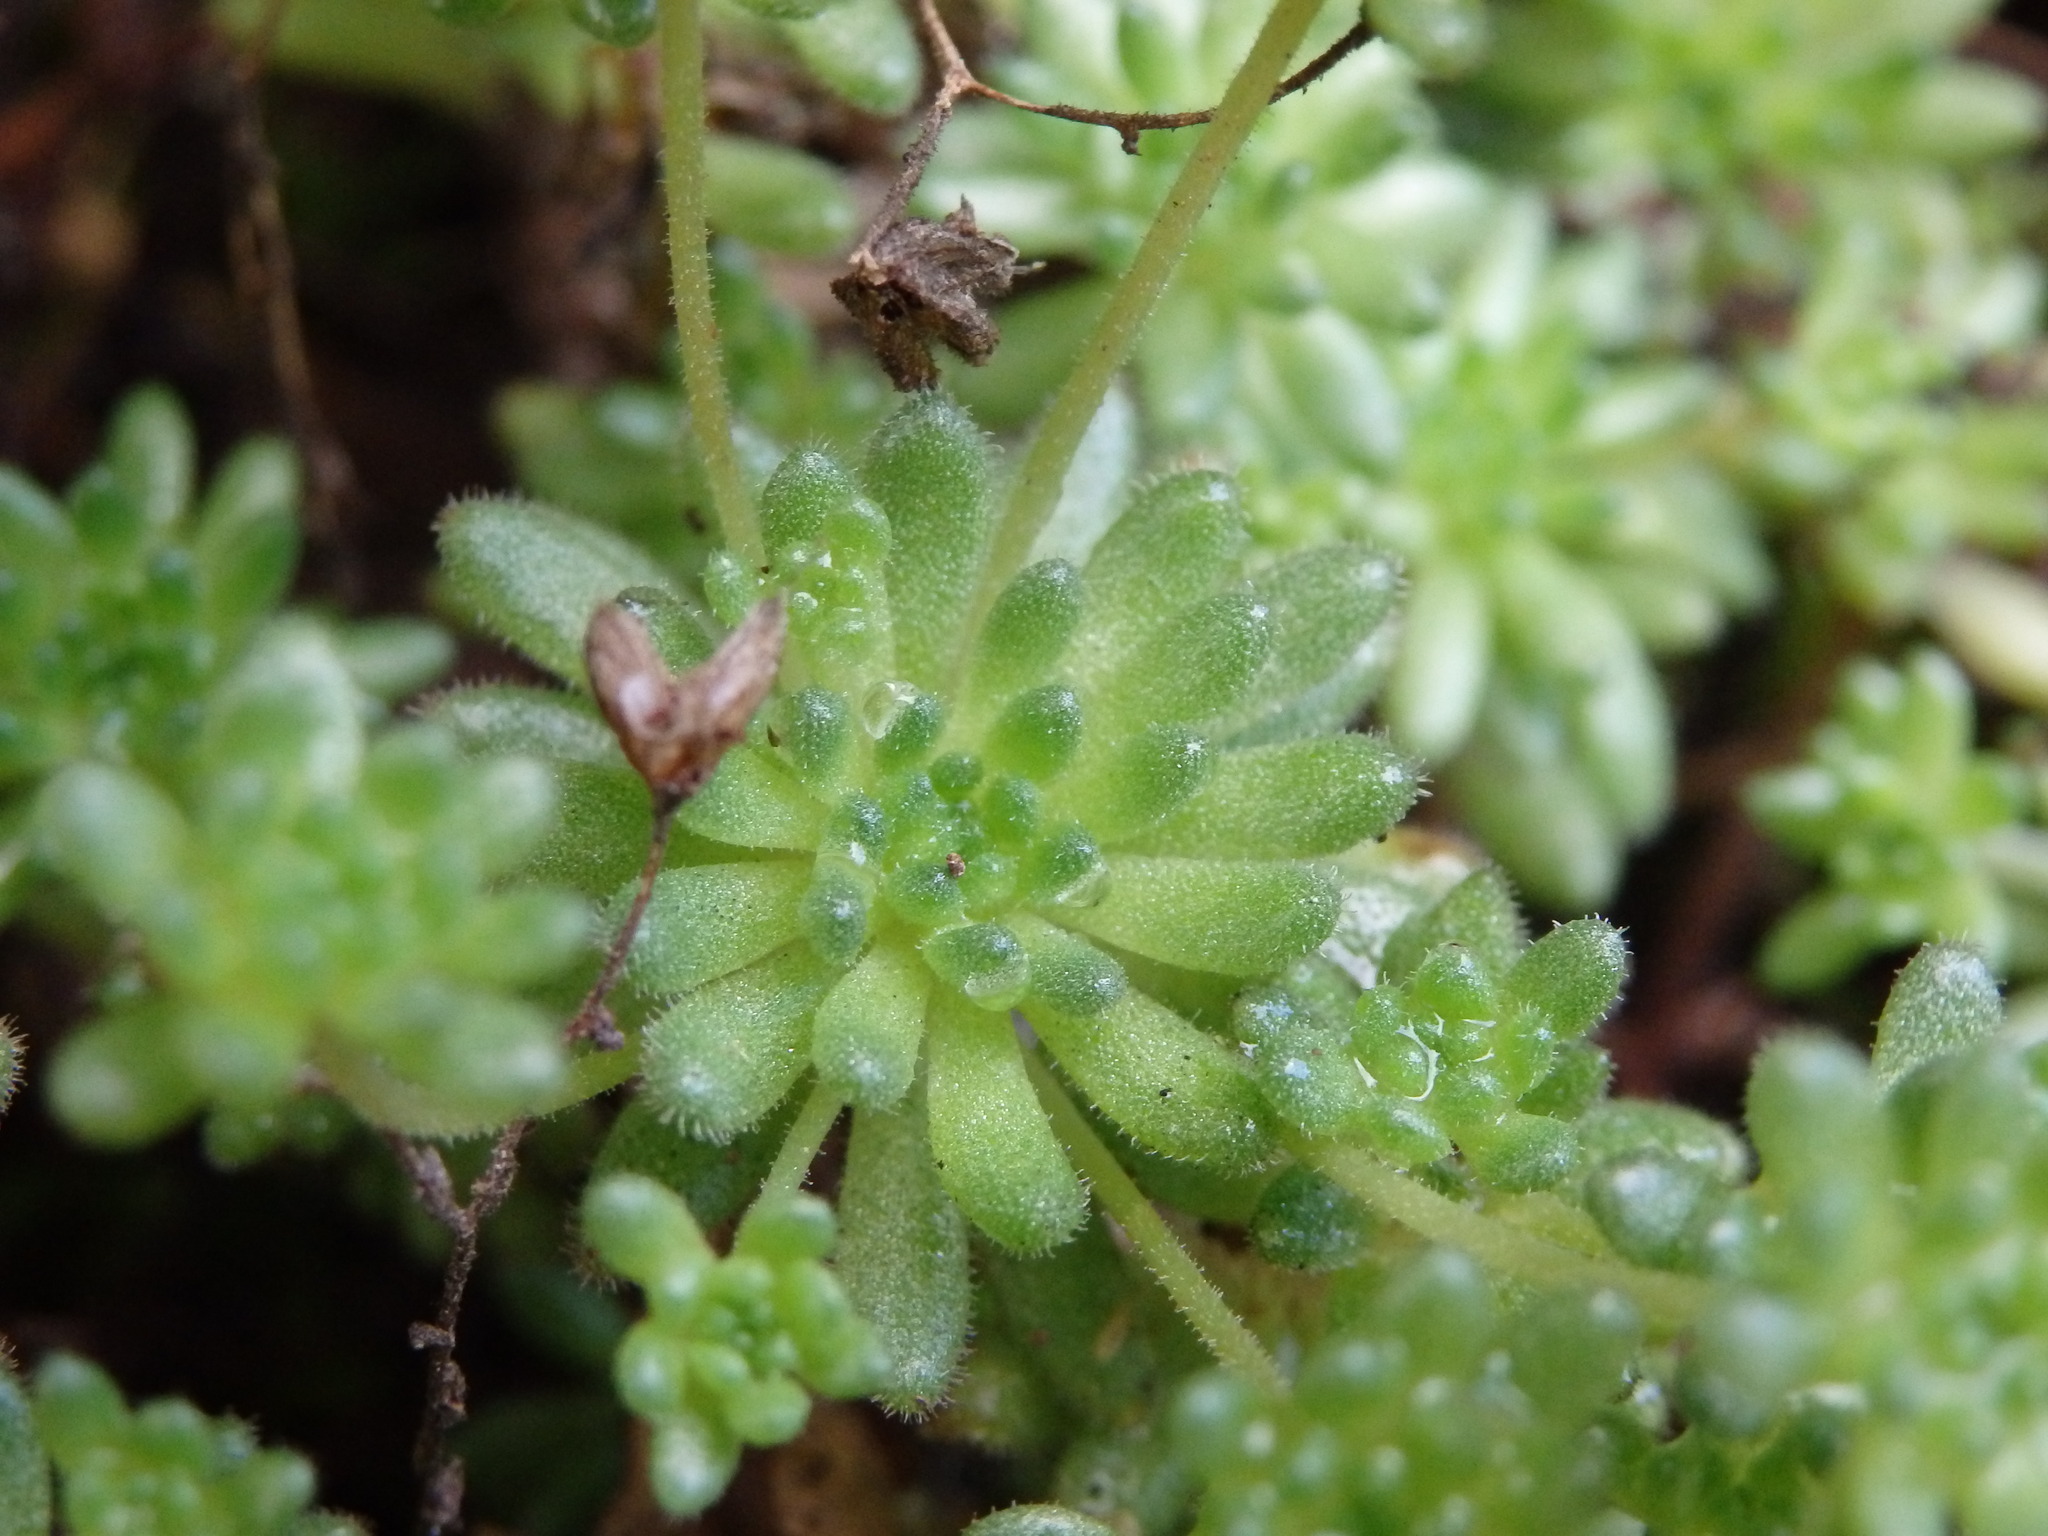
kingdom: Plantae
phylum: Tracheophyta
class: Magnoliopsida
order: Saxifragales
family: Crassulaceae
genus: Sedum
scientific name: Sedum hirsutum
